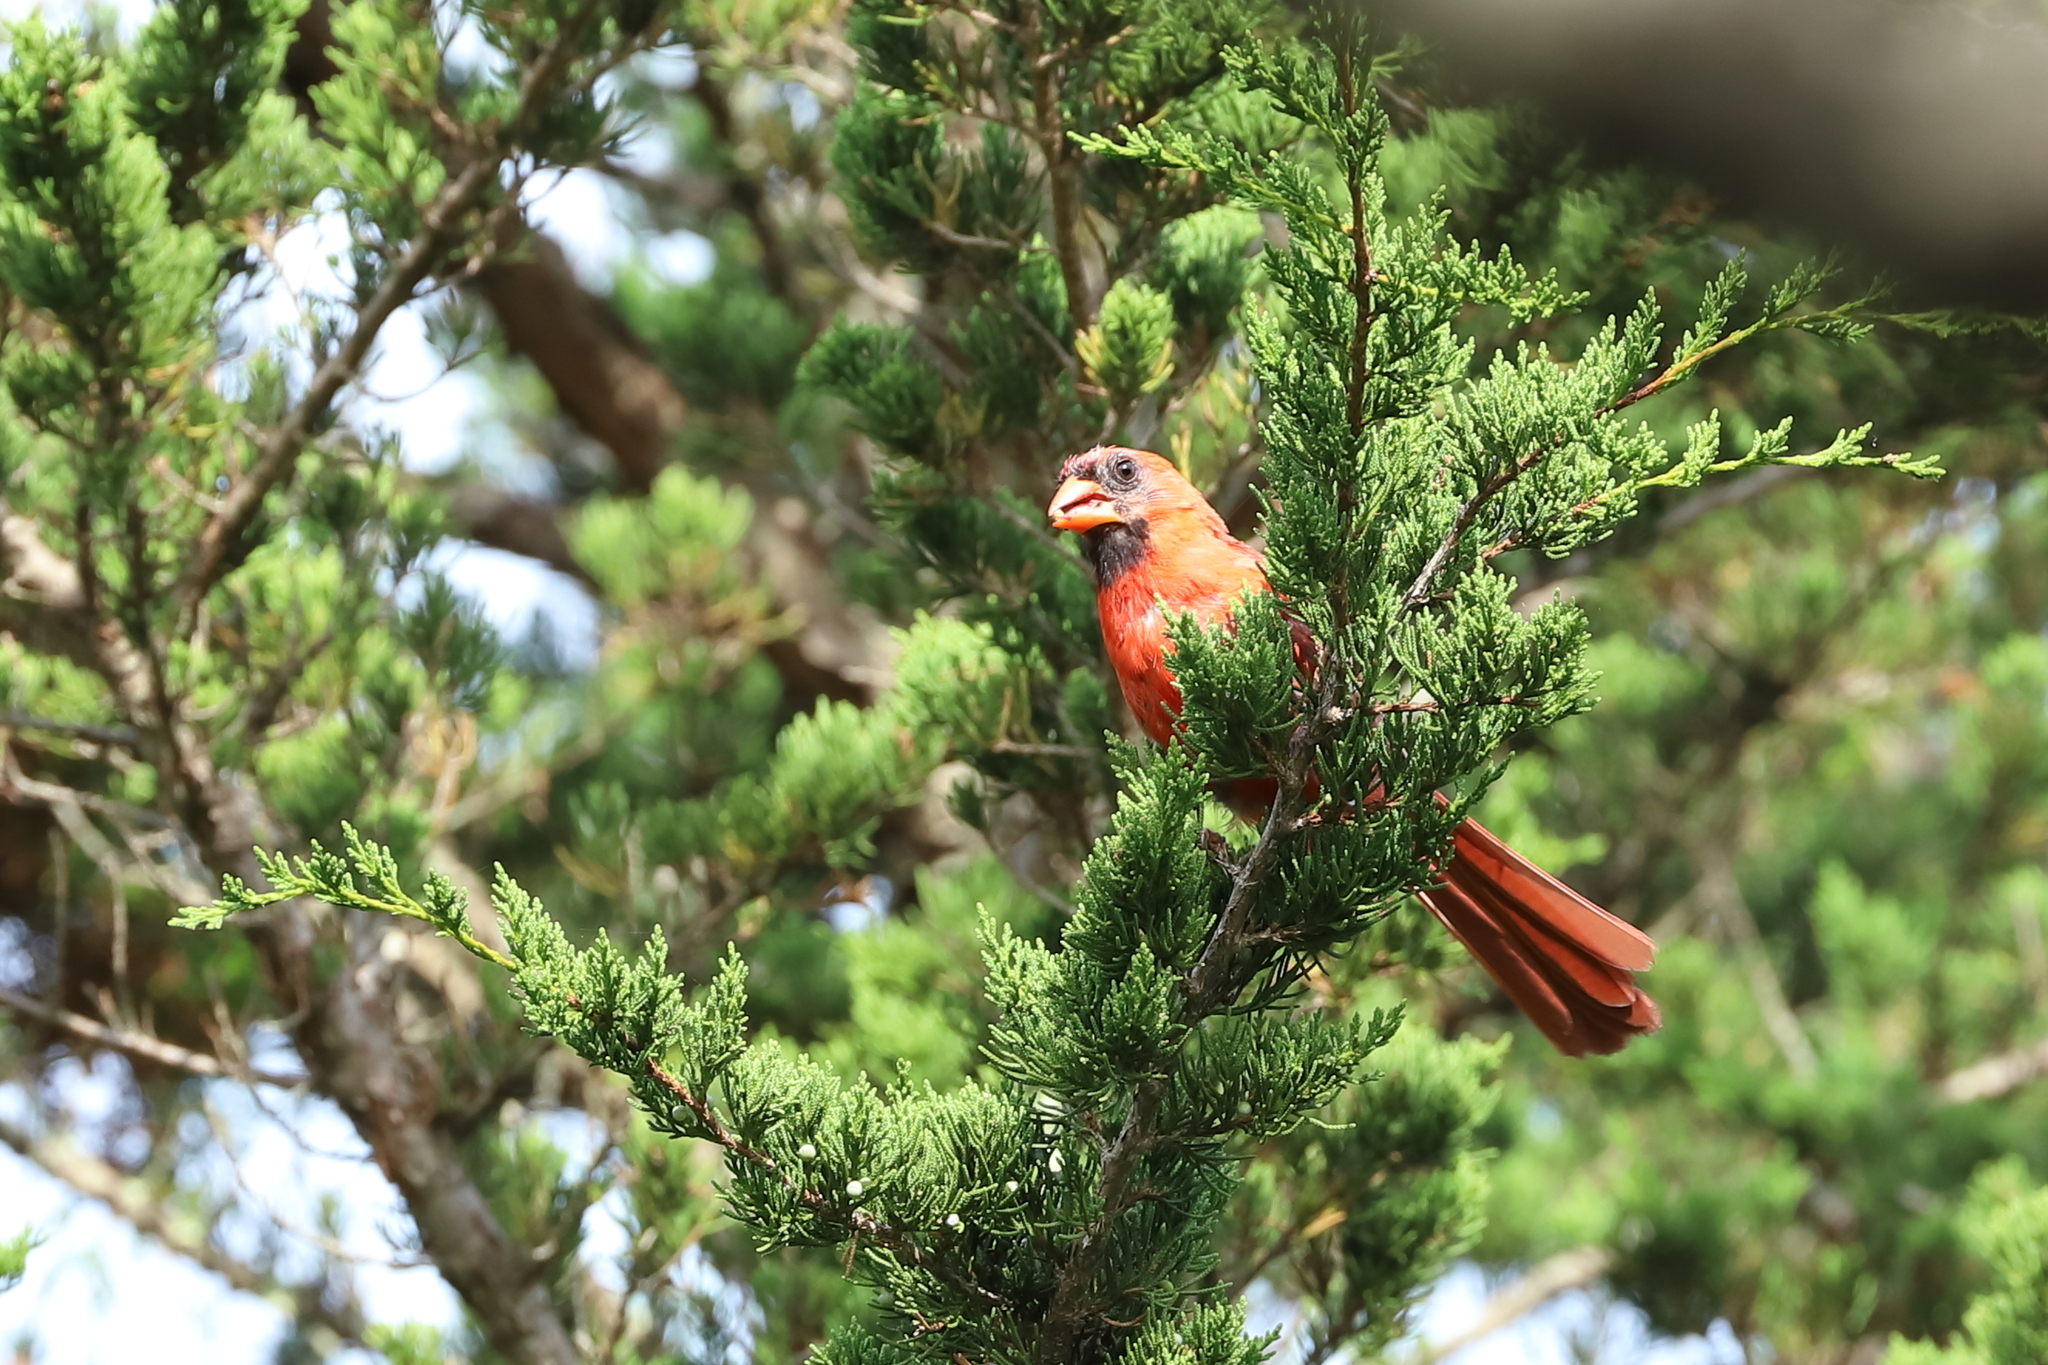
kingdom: Animalia
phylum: Chordata
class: Aves
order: Passeriformes
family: Cardinalidae
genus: Cardinalis
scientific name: Cardinalis cardinalis
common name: Northern cardinal
